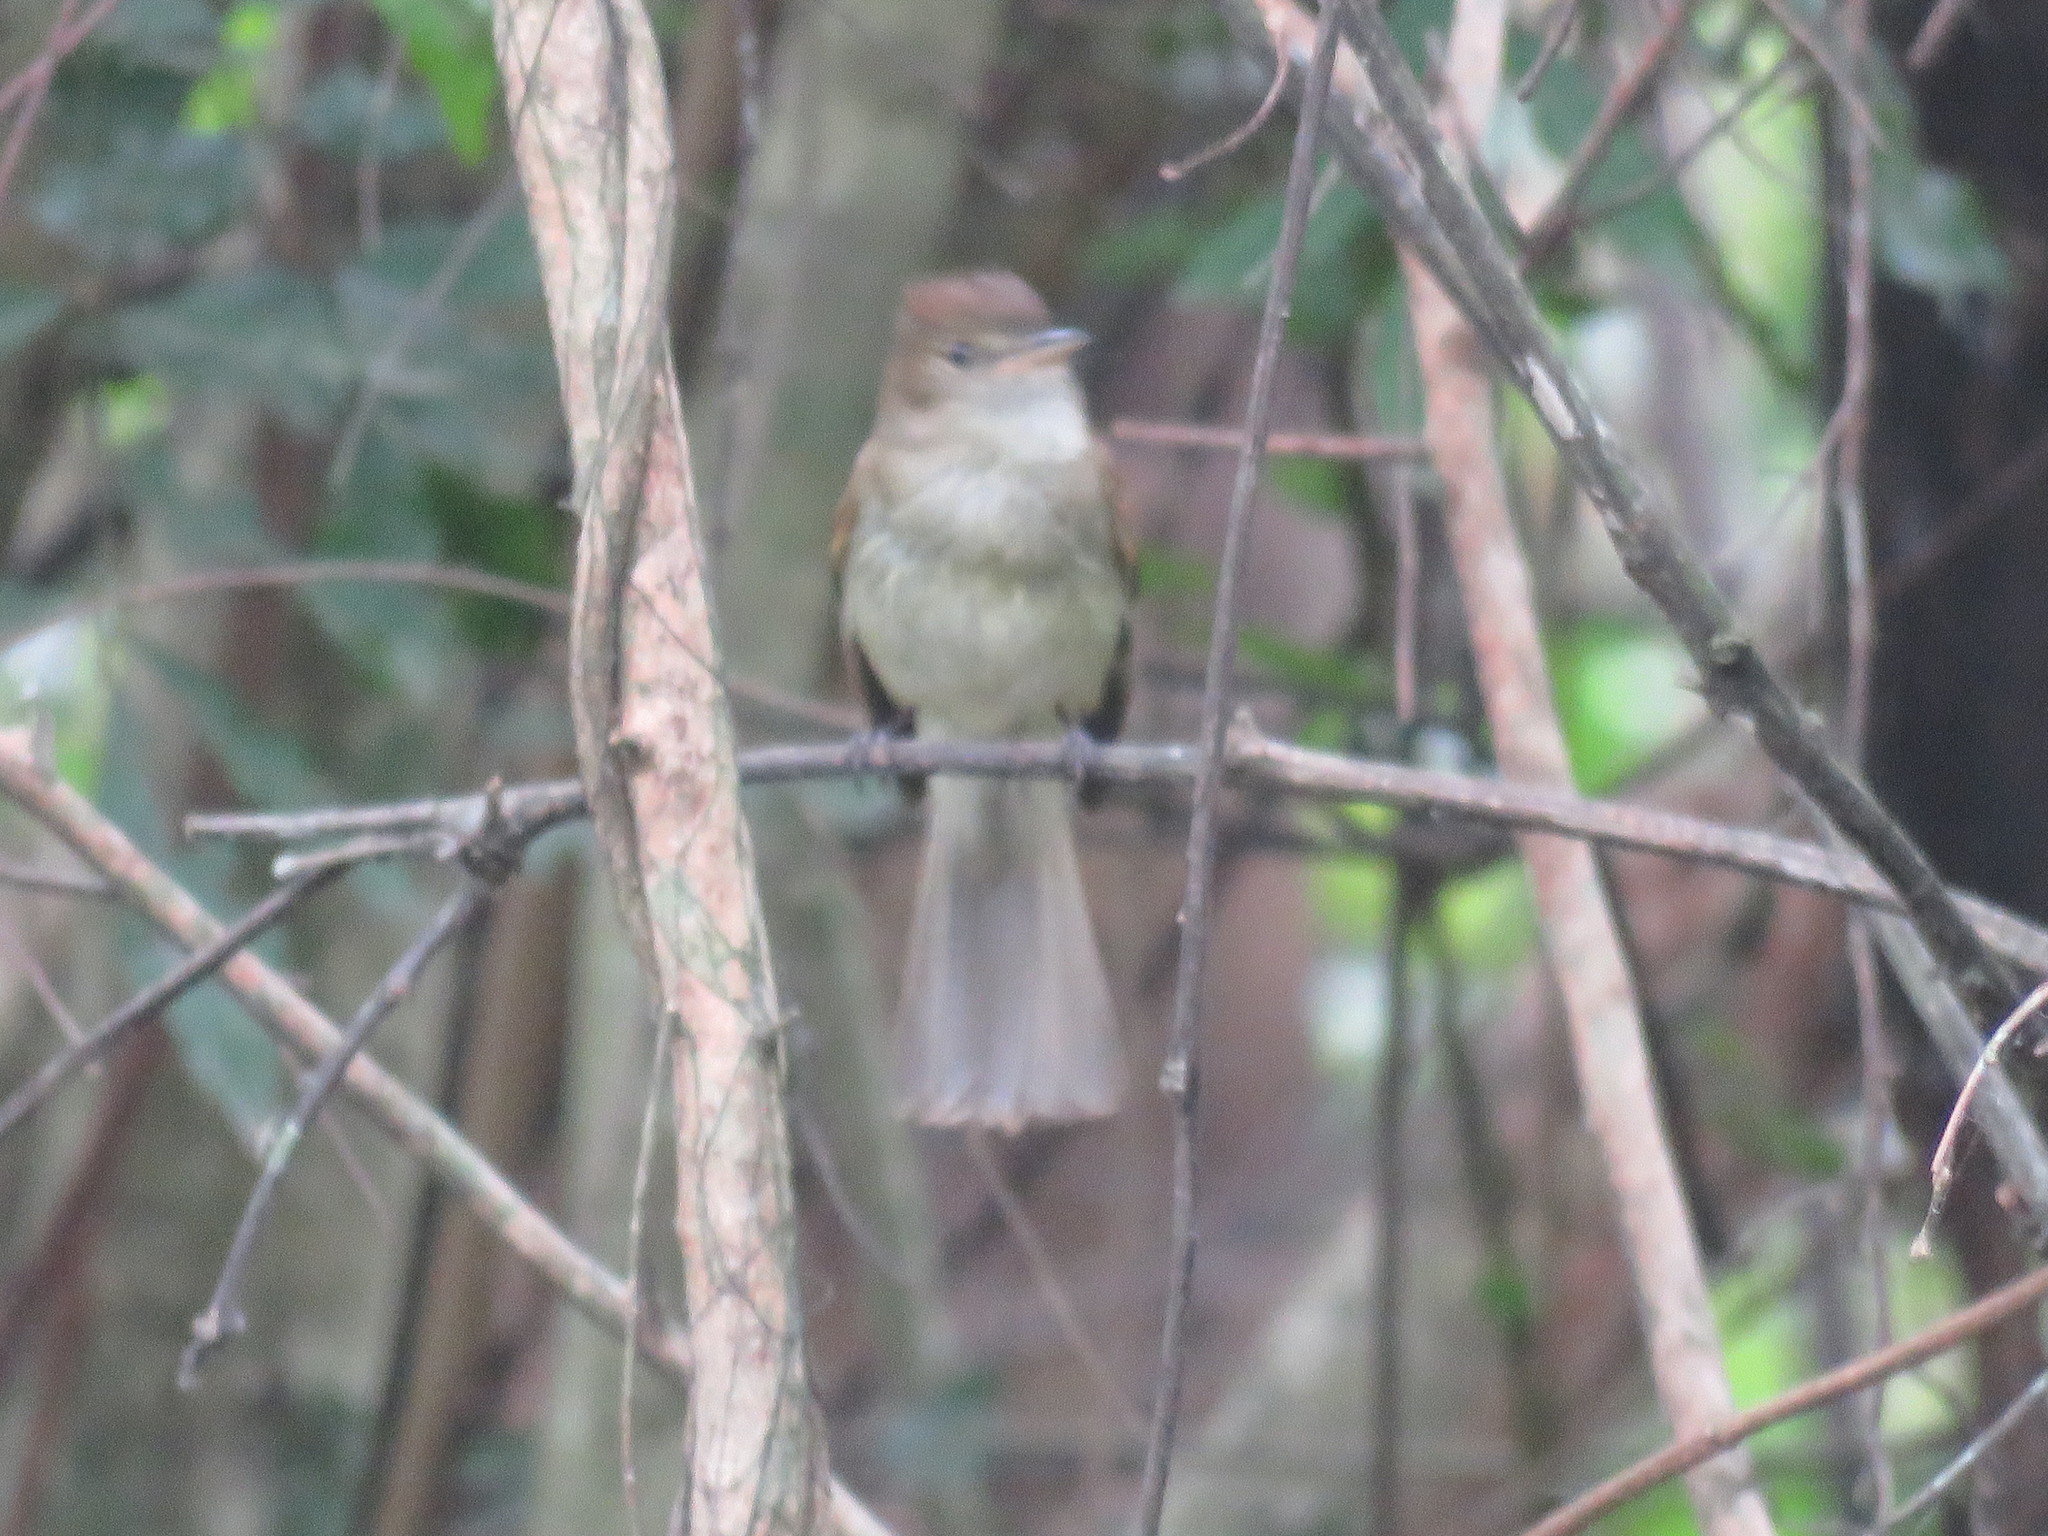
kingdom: Animalia
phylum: Chordata
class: Aves
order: Passeriformes
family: Tyrannidae
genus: Lathrotriccus
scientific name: Lathrotriccus euleri
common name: Euler's flycatcher
